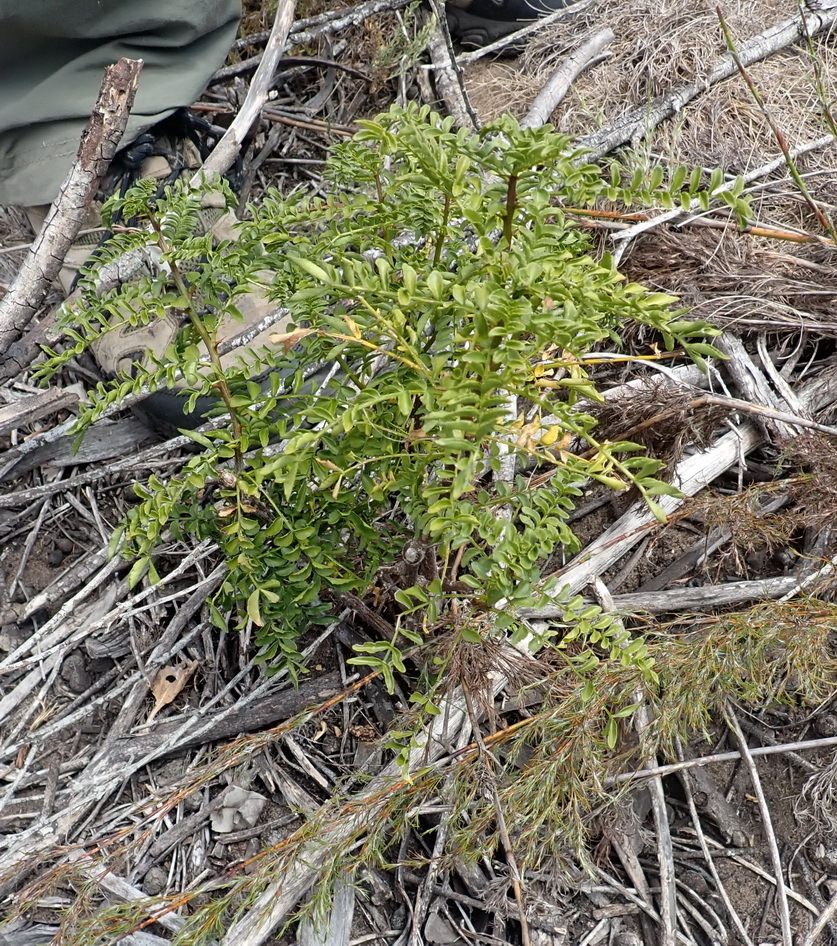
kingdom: Plantae
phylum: Tracheophyta
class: Magnoliopsida
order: Sapindales
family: Rutaceae
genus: Clausena
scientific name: Clausena anisata
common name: Horsewood
